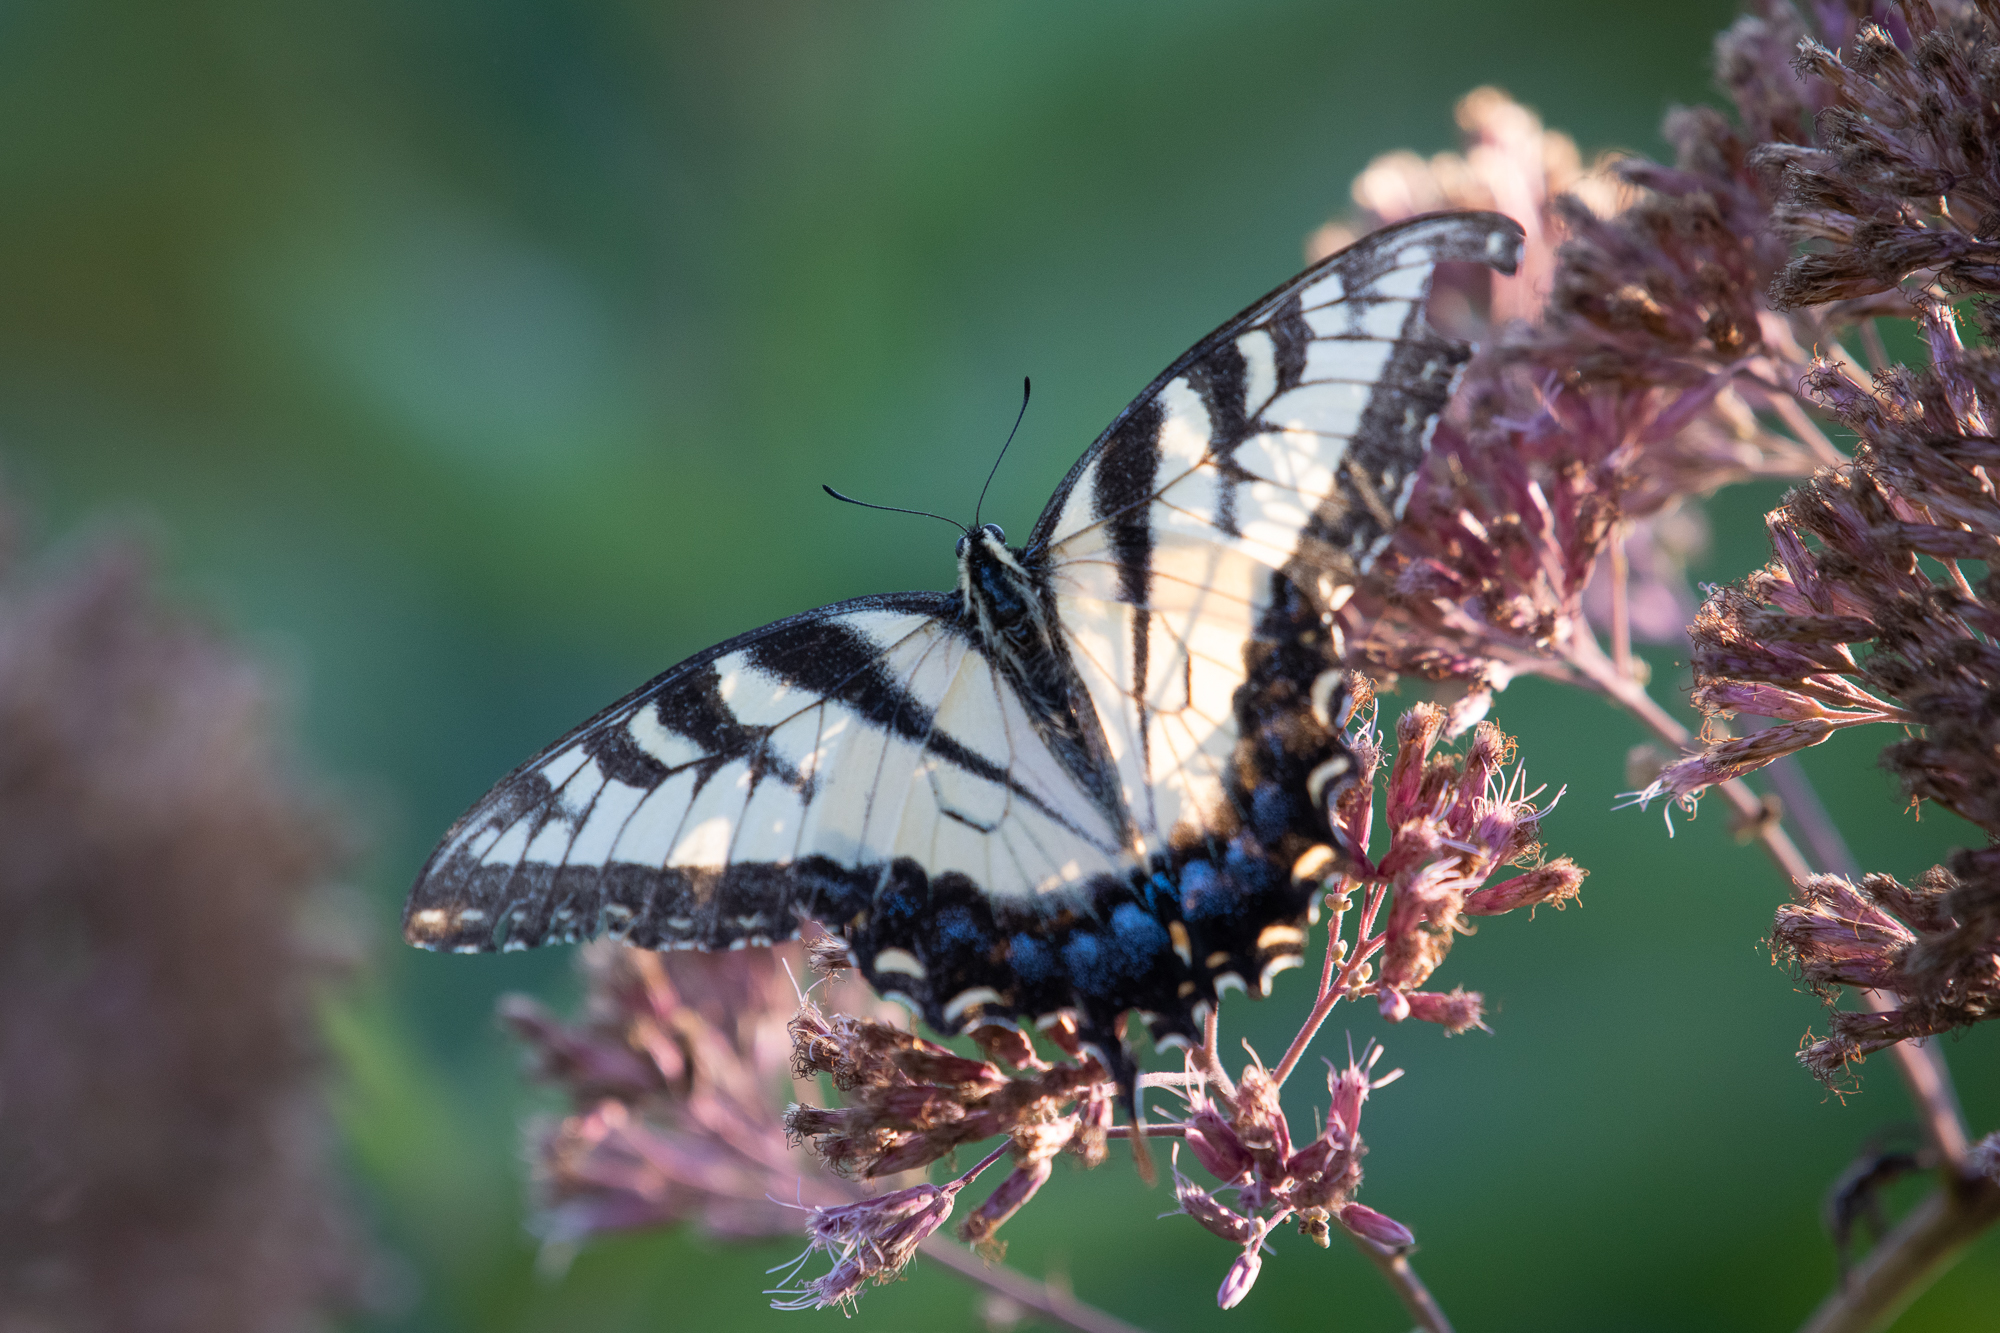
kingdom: Animalia
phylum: Arthropoda
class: Insecta
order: Lepidoptera
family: Papilionidae
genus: Papilio
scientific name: Papilio glaucus
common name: Tiger swallowtail
